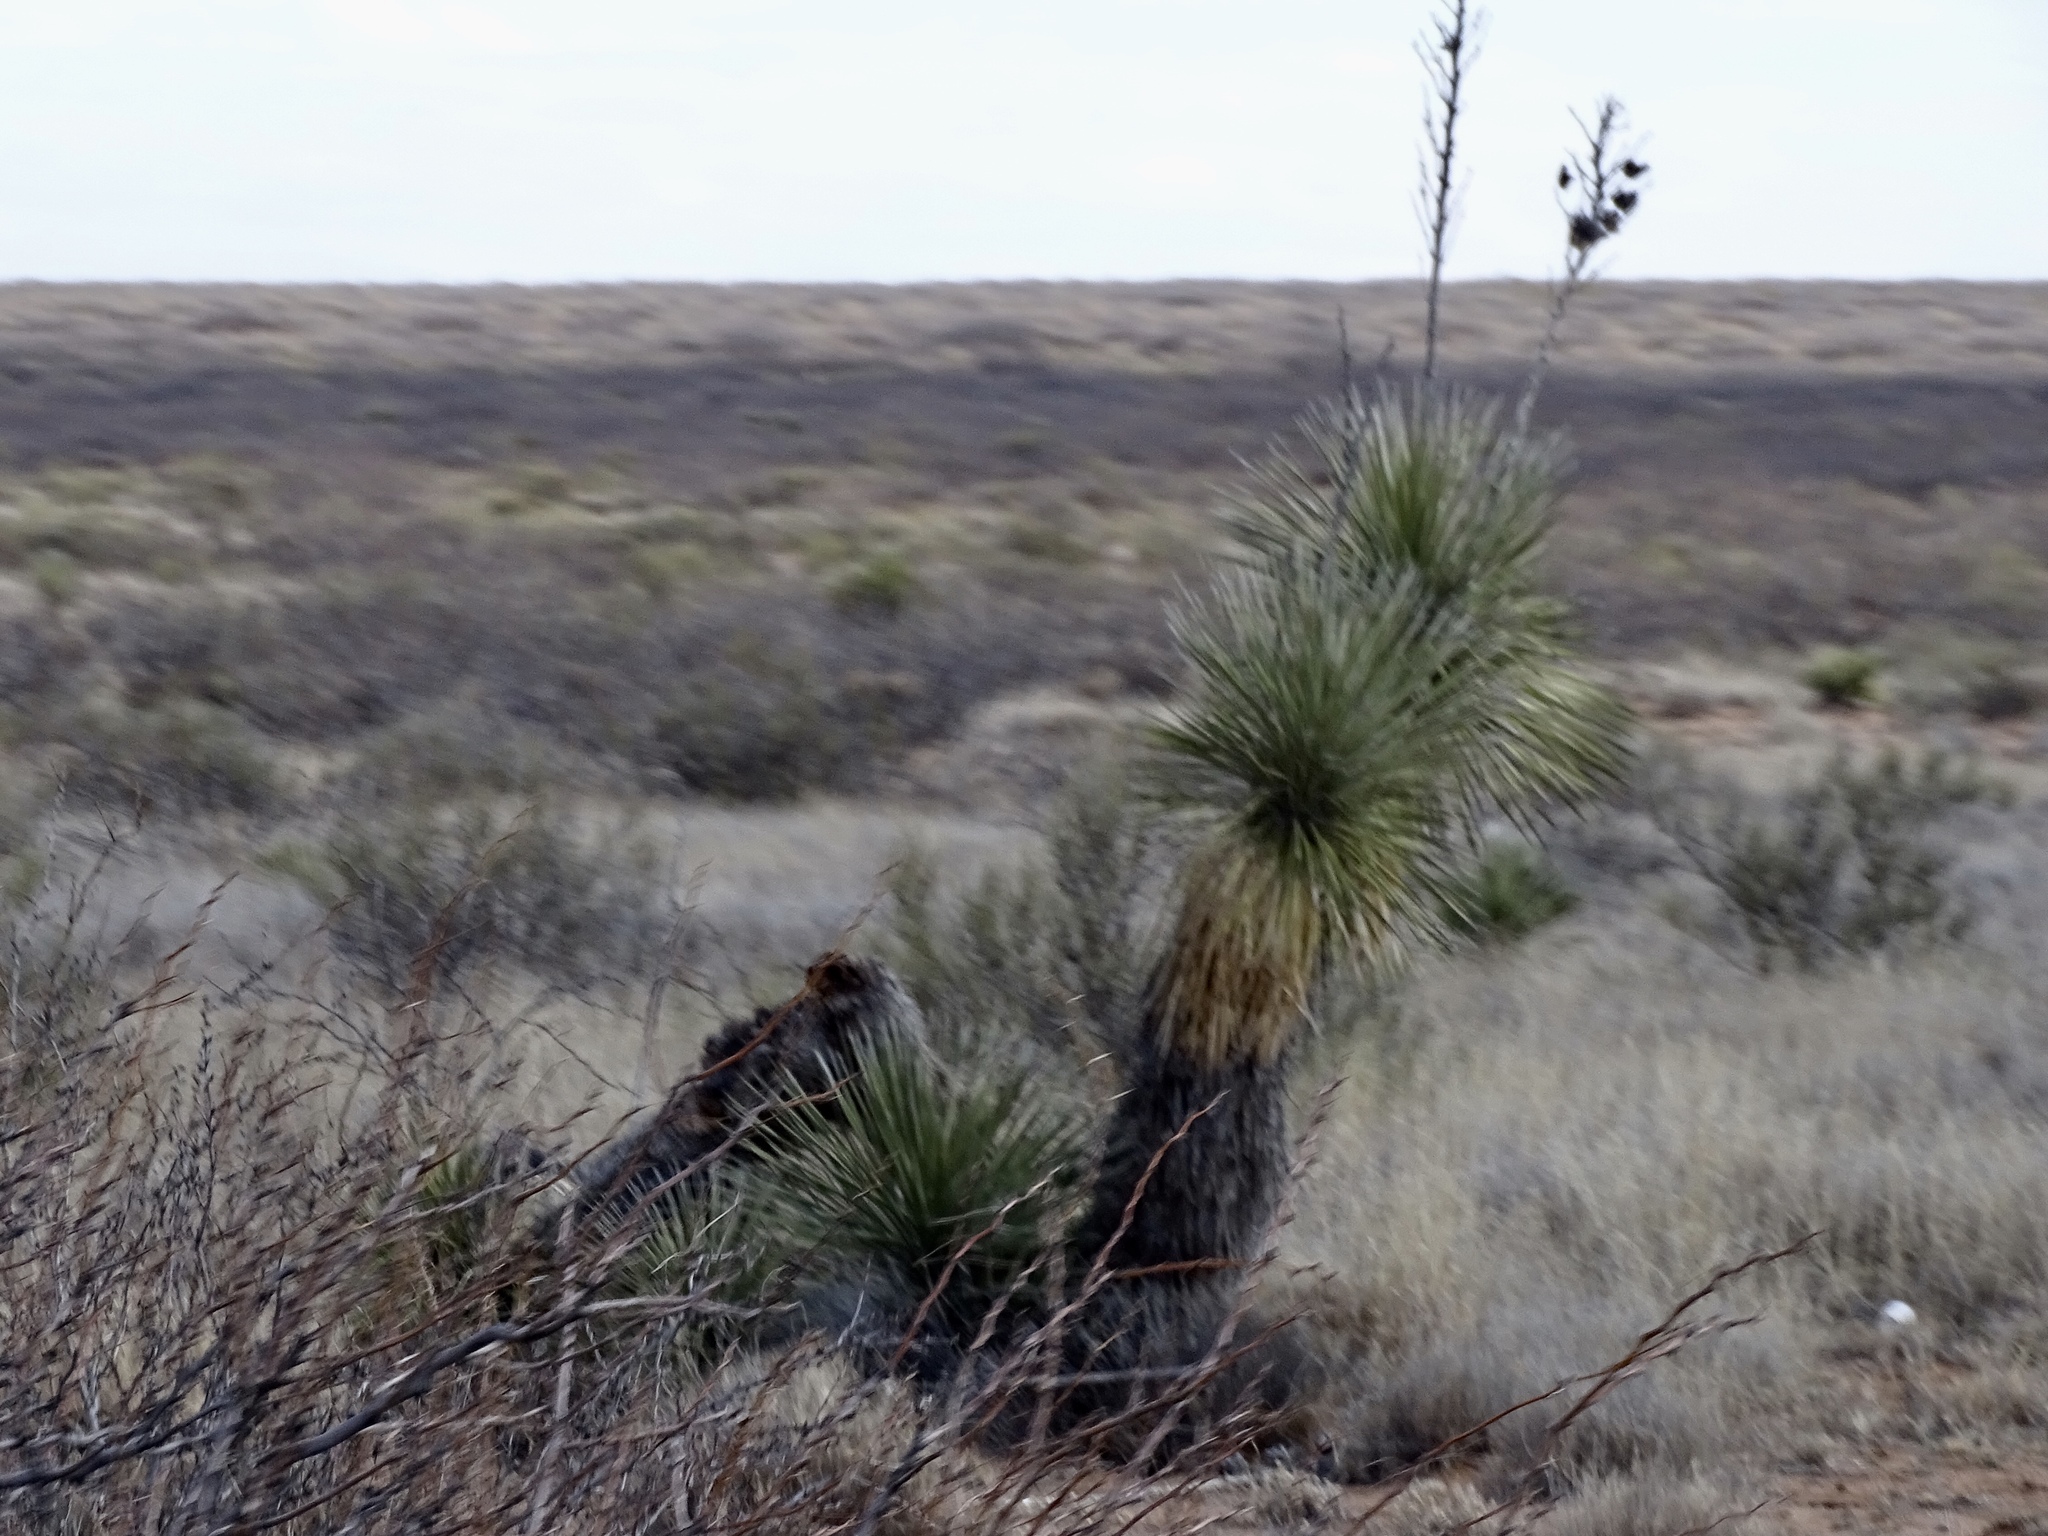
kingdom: Plantae
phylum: Tracheophyta
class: Liliopsida
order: Asparagales
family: Asparagaceae
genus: Yucca
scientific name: Yucca elata
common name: Palmella
